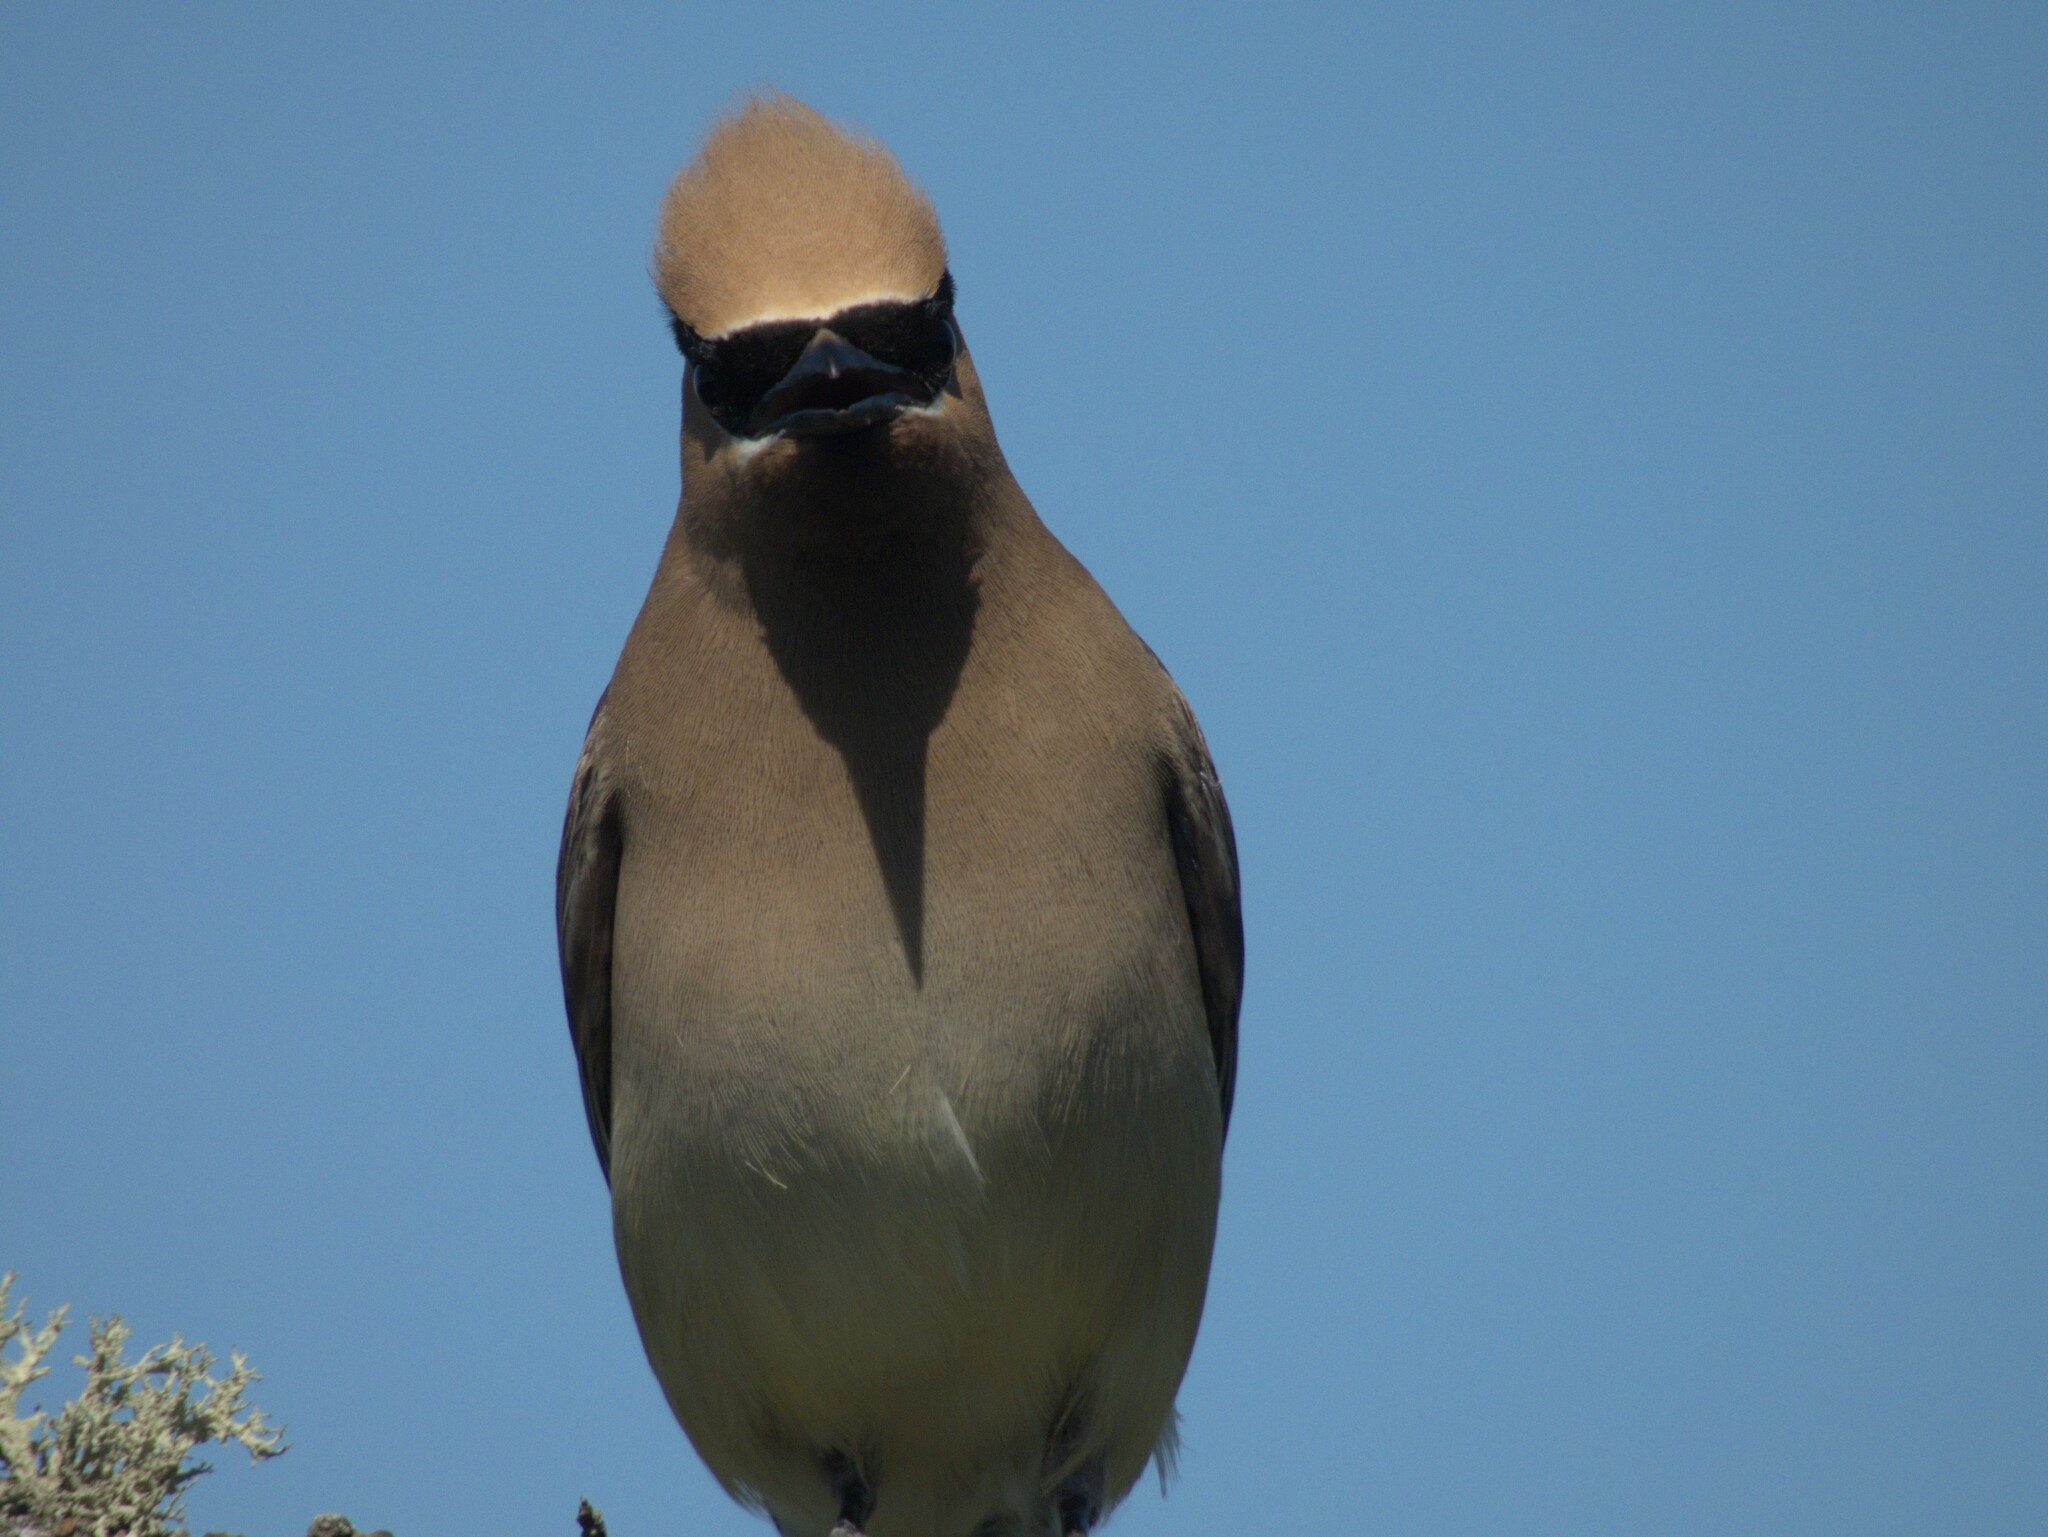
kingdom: Animalia
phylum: Chordata
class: Aves
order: Passeriformes
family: Bombycillidae
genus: Bombycilla
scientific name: Bombycilla cedrorum
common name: Cedar waxwing
